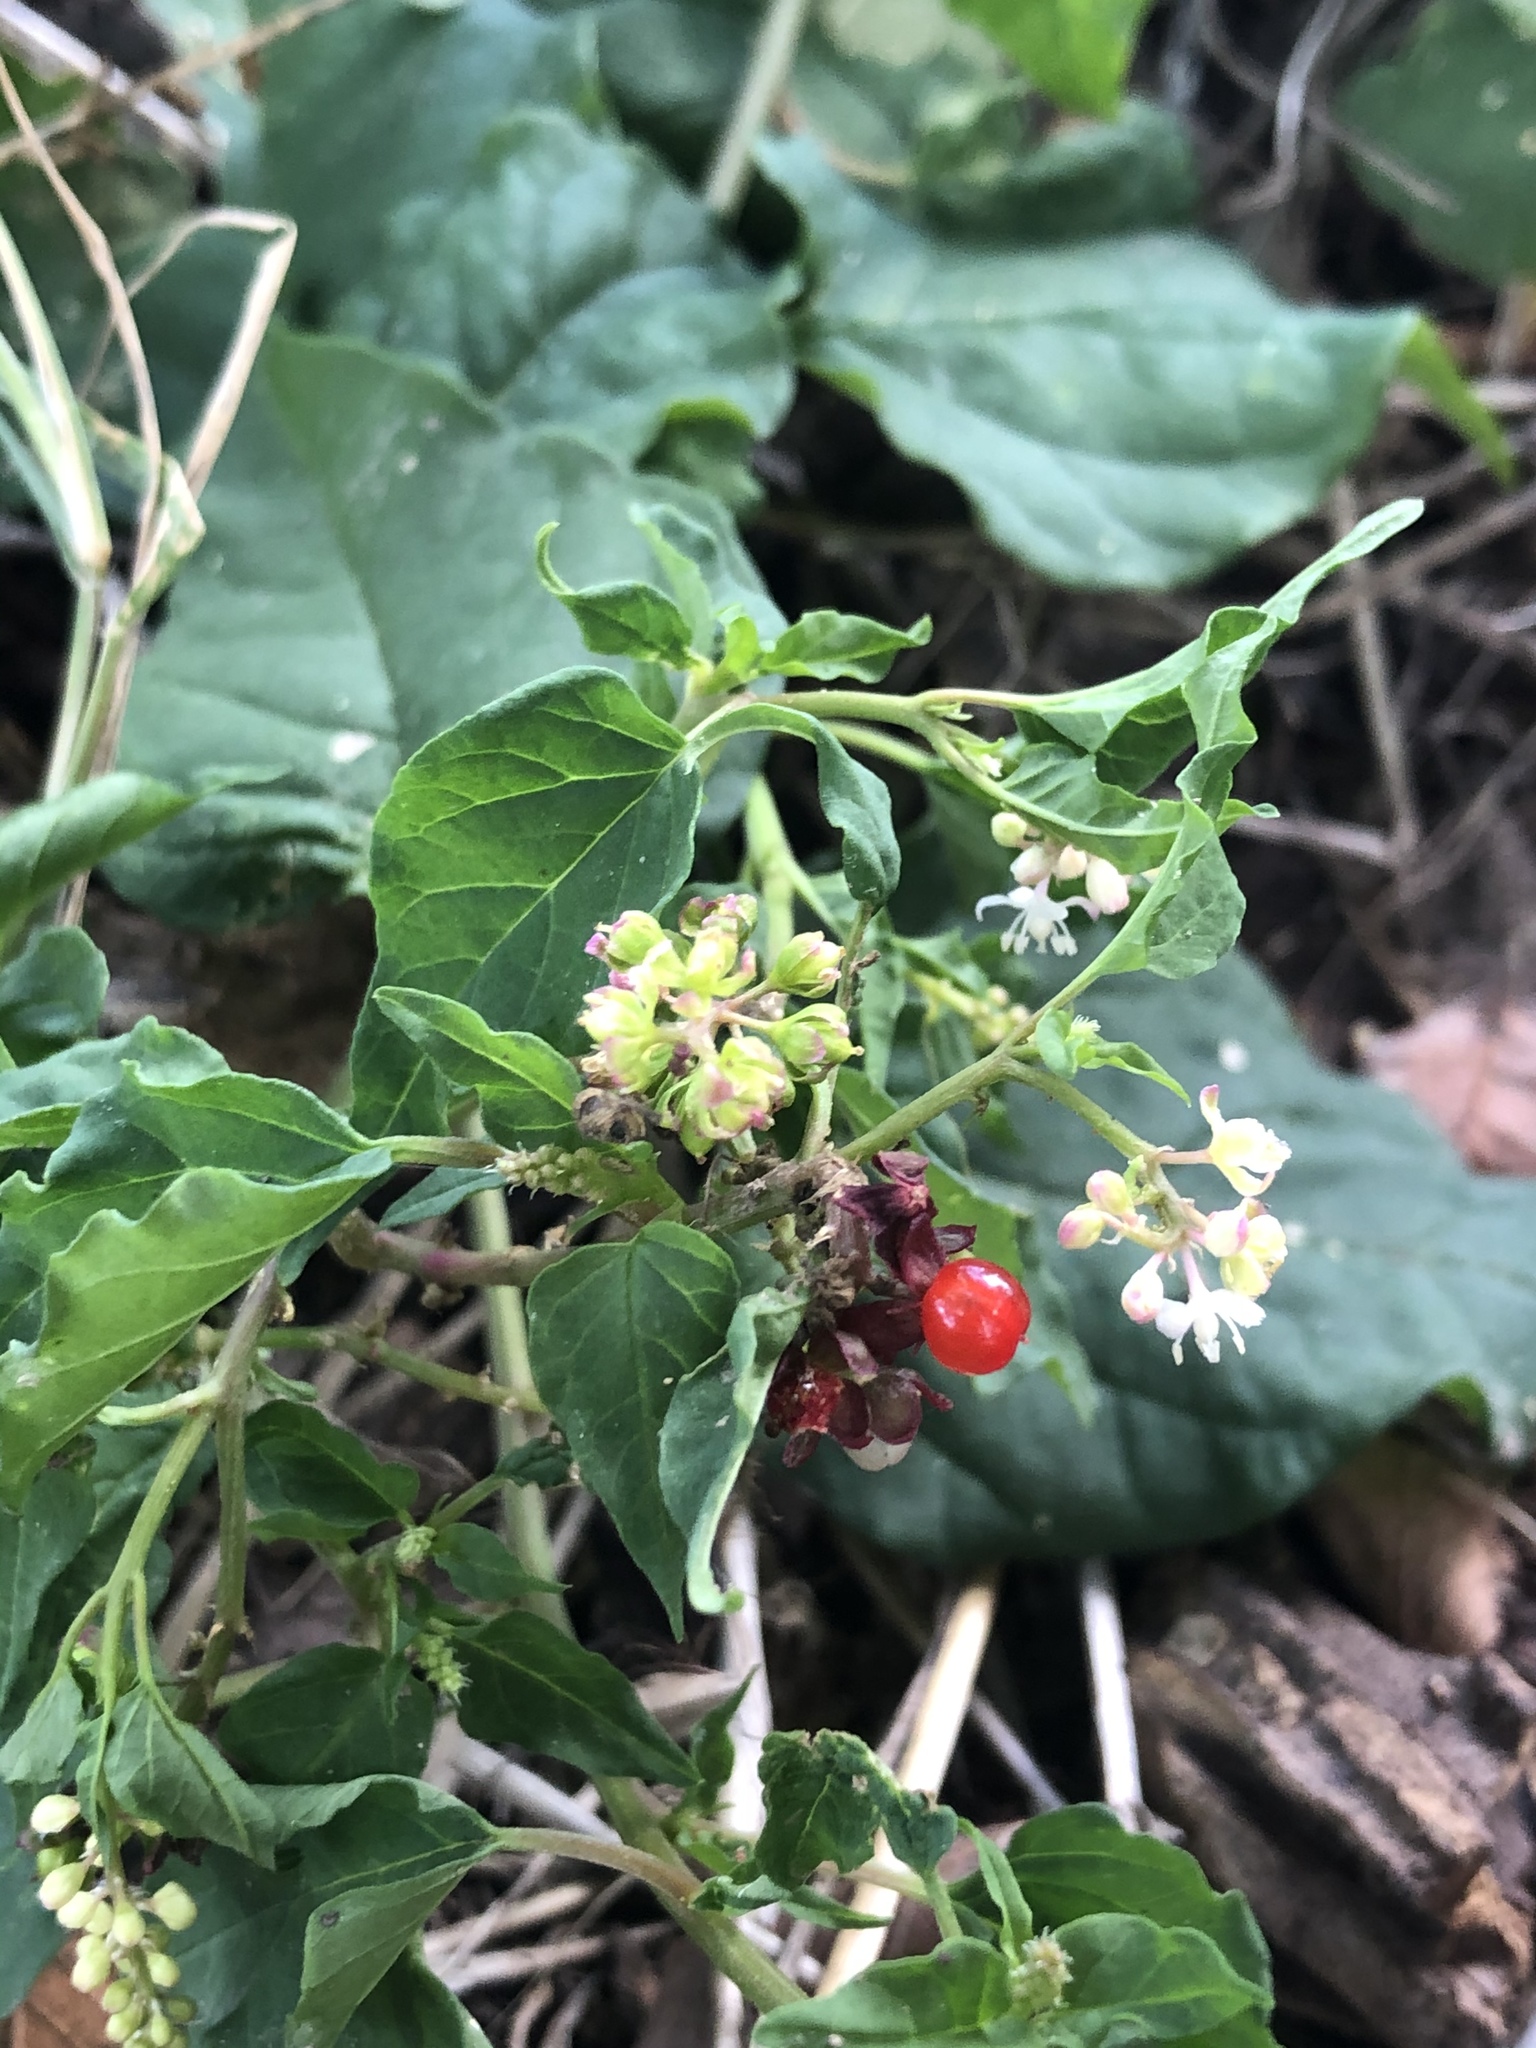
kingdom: Plantae
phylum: Tracheophyta
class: Magnoliopsida
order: Caryophyllales
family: Phytolaccaceae
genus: Rivina
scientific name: Rivina humilis
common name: Rougeplant
